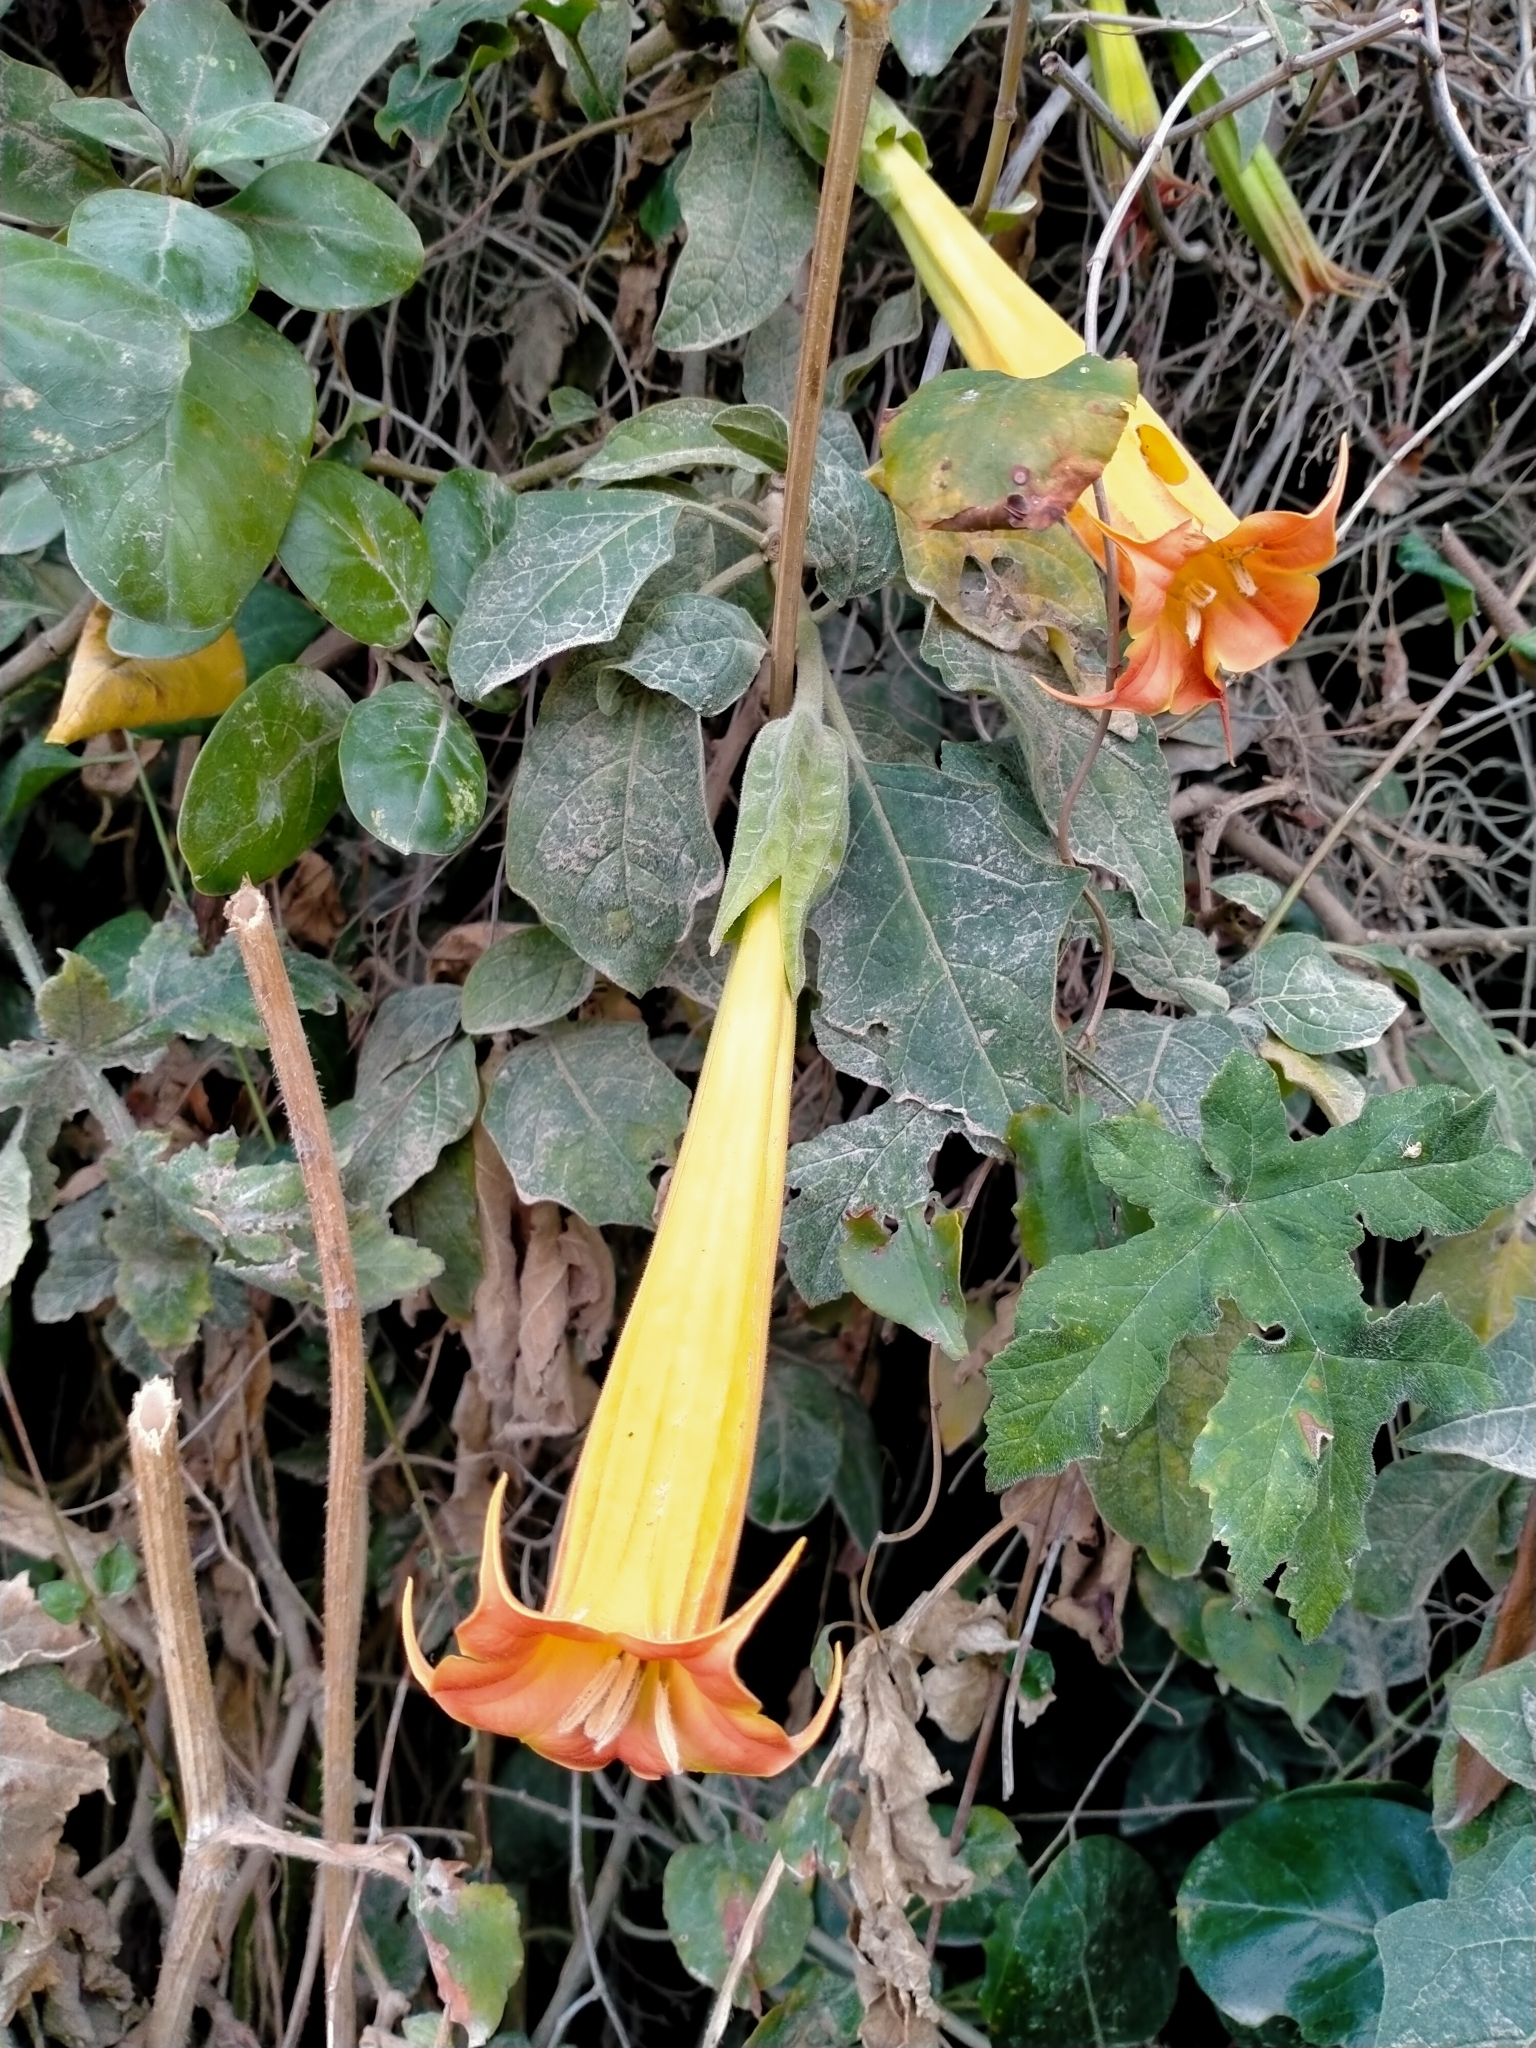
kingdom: Plantae
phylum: Tracheophyta
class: Magnoliopsida
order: Solanales
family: Solanaceae
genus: Brugmansia
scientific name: Brugmansia sanguinea
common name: Red floripontio
